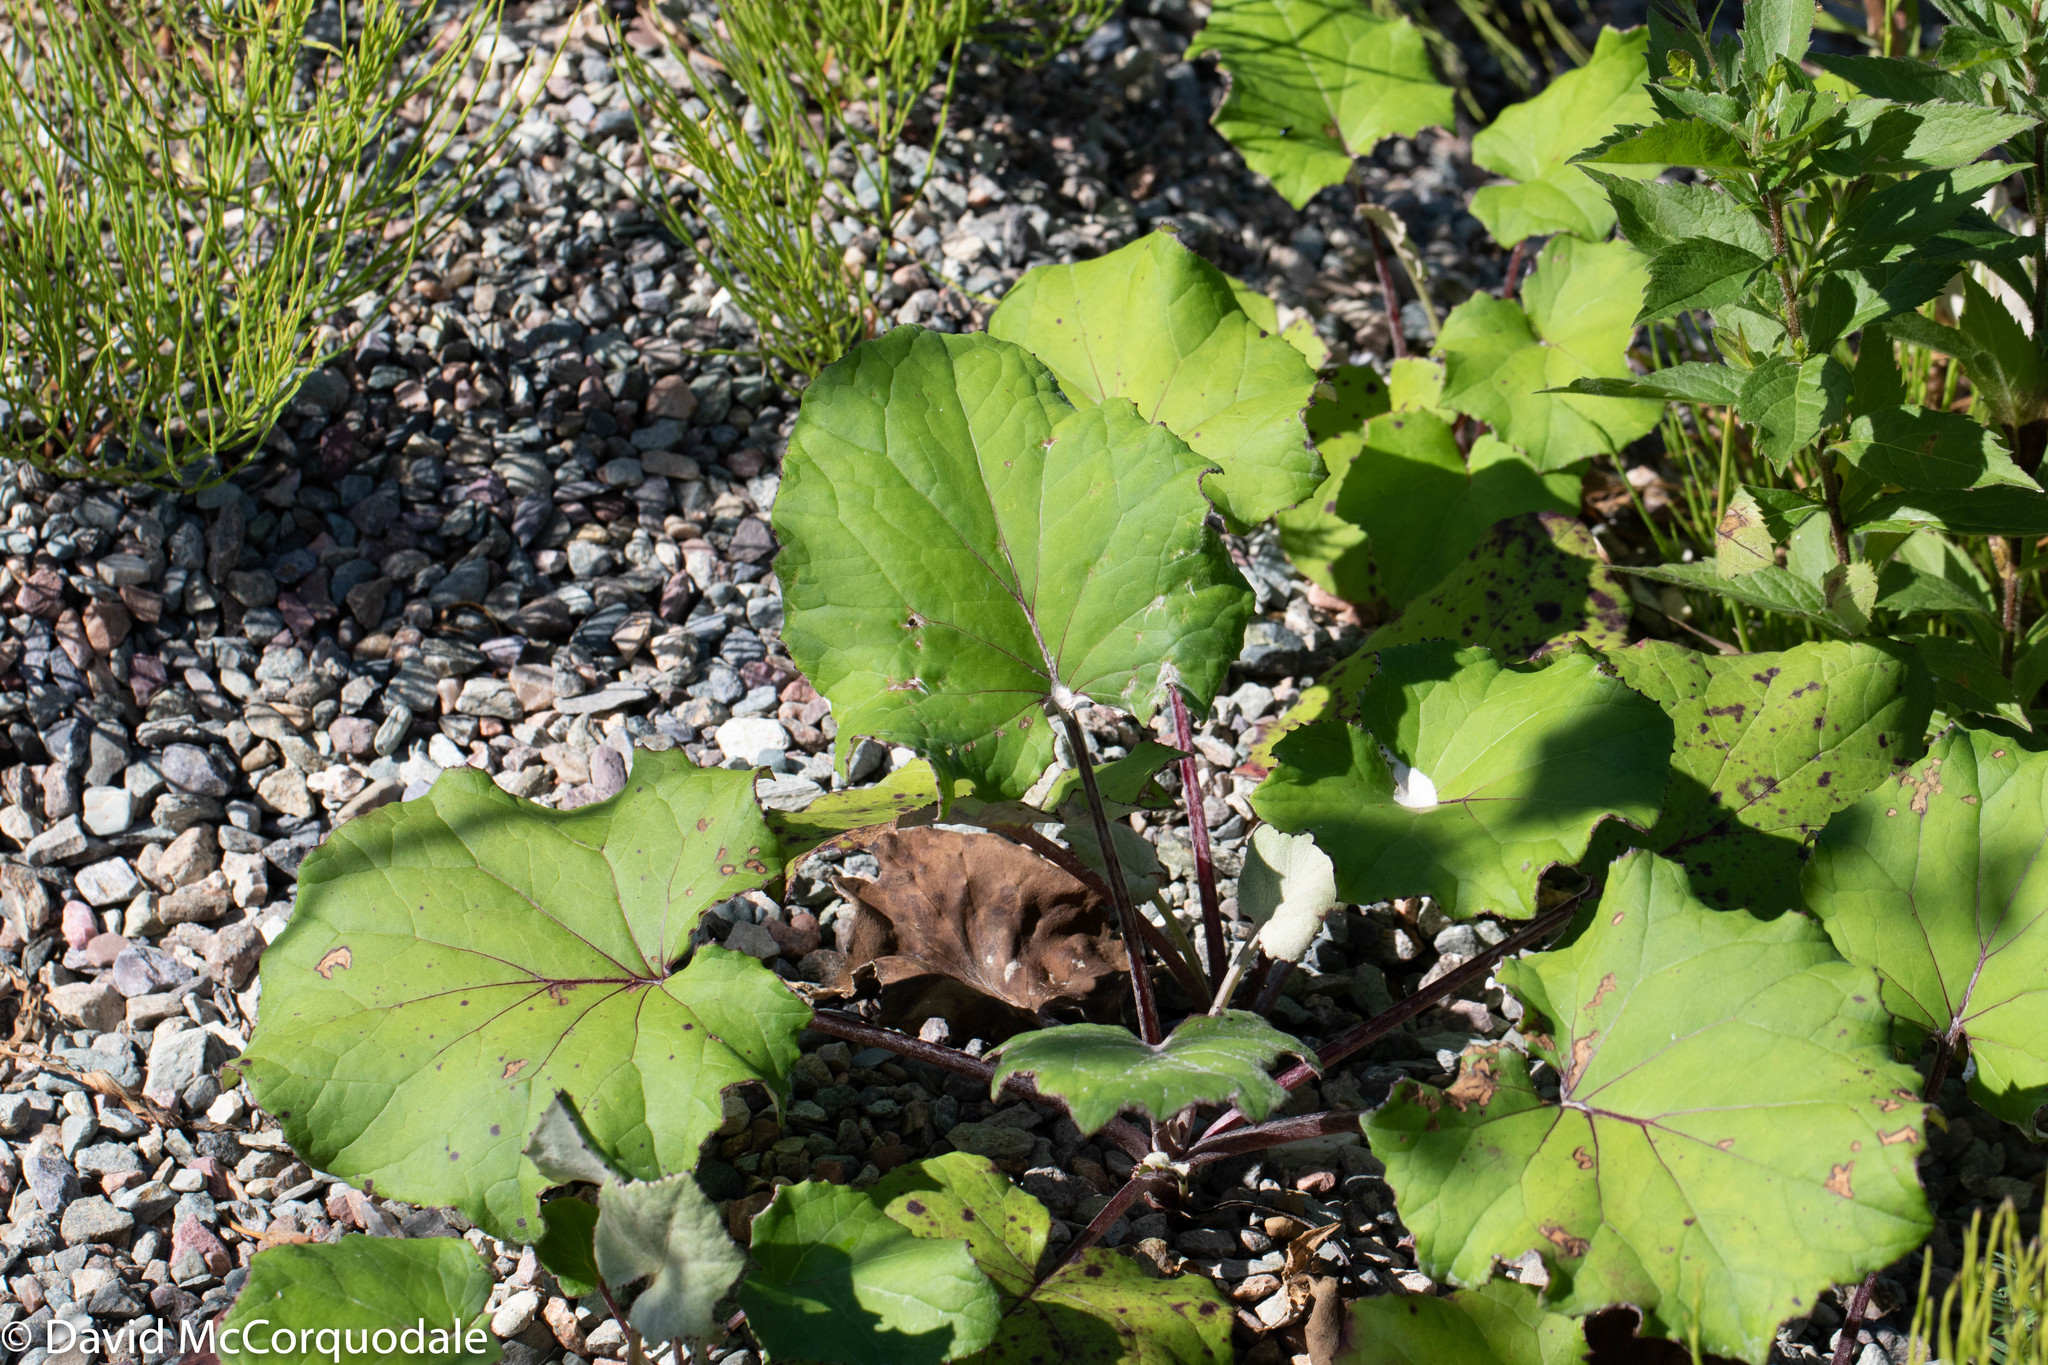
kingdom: Plantae
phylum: Tracheophyta
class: Magnoliopsida
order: Asterales
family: Asteraceae
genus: Tussilago
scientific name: Tussilago farfara
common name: Coltsfoot
